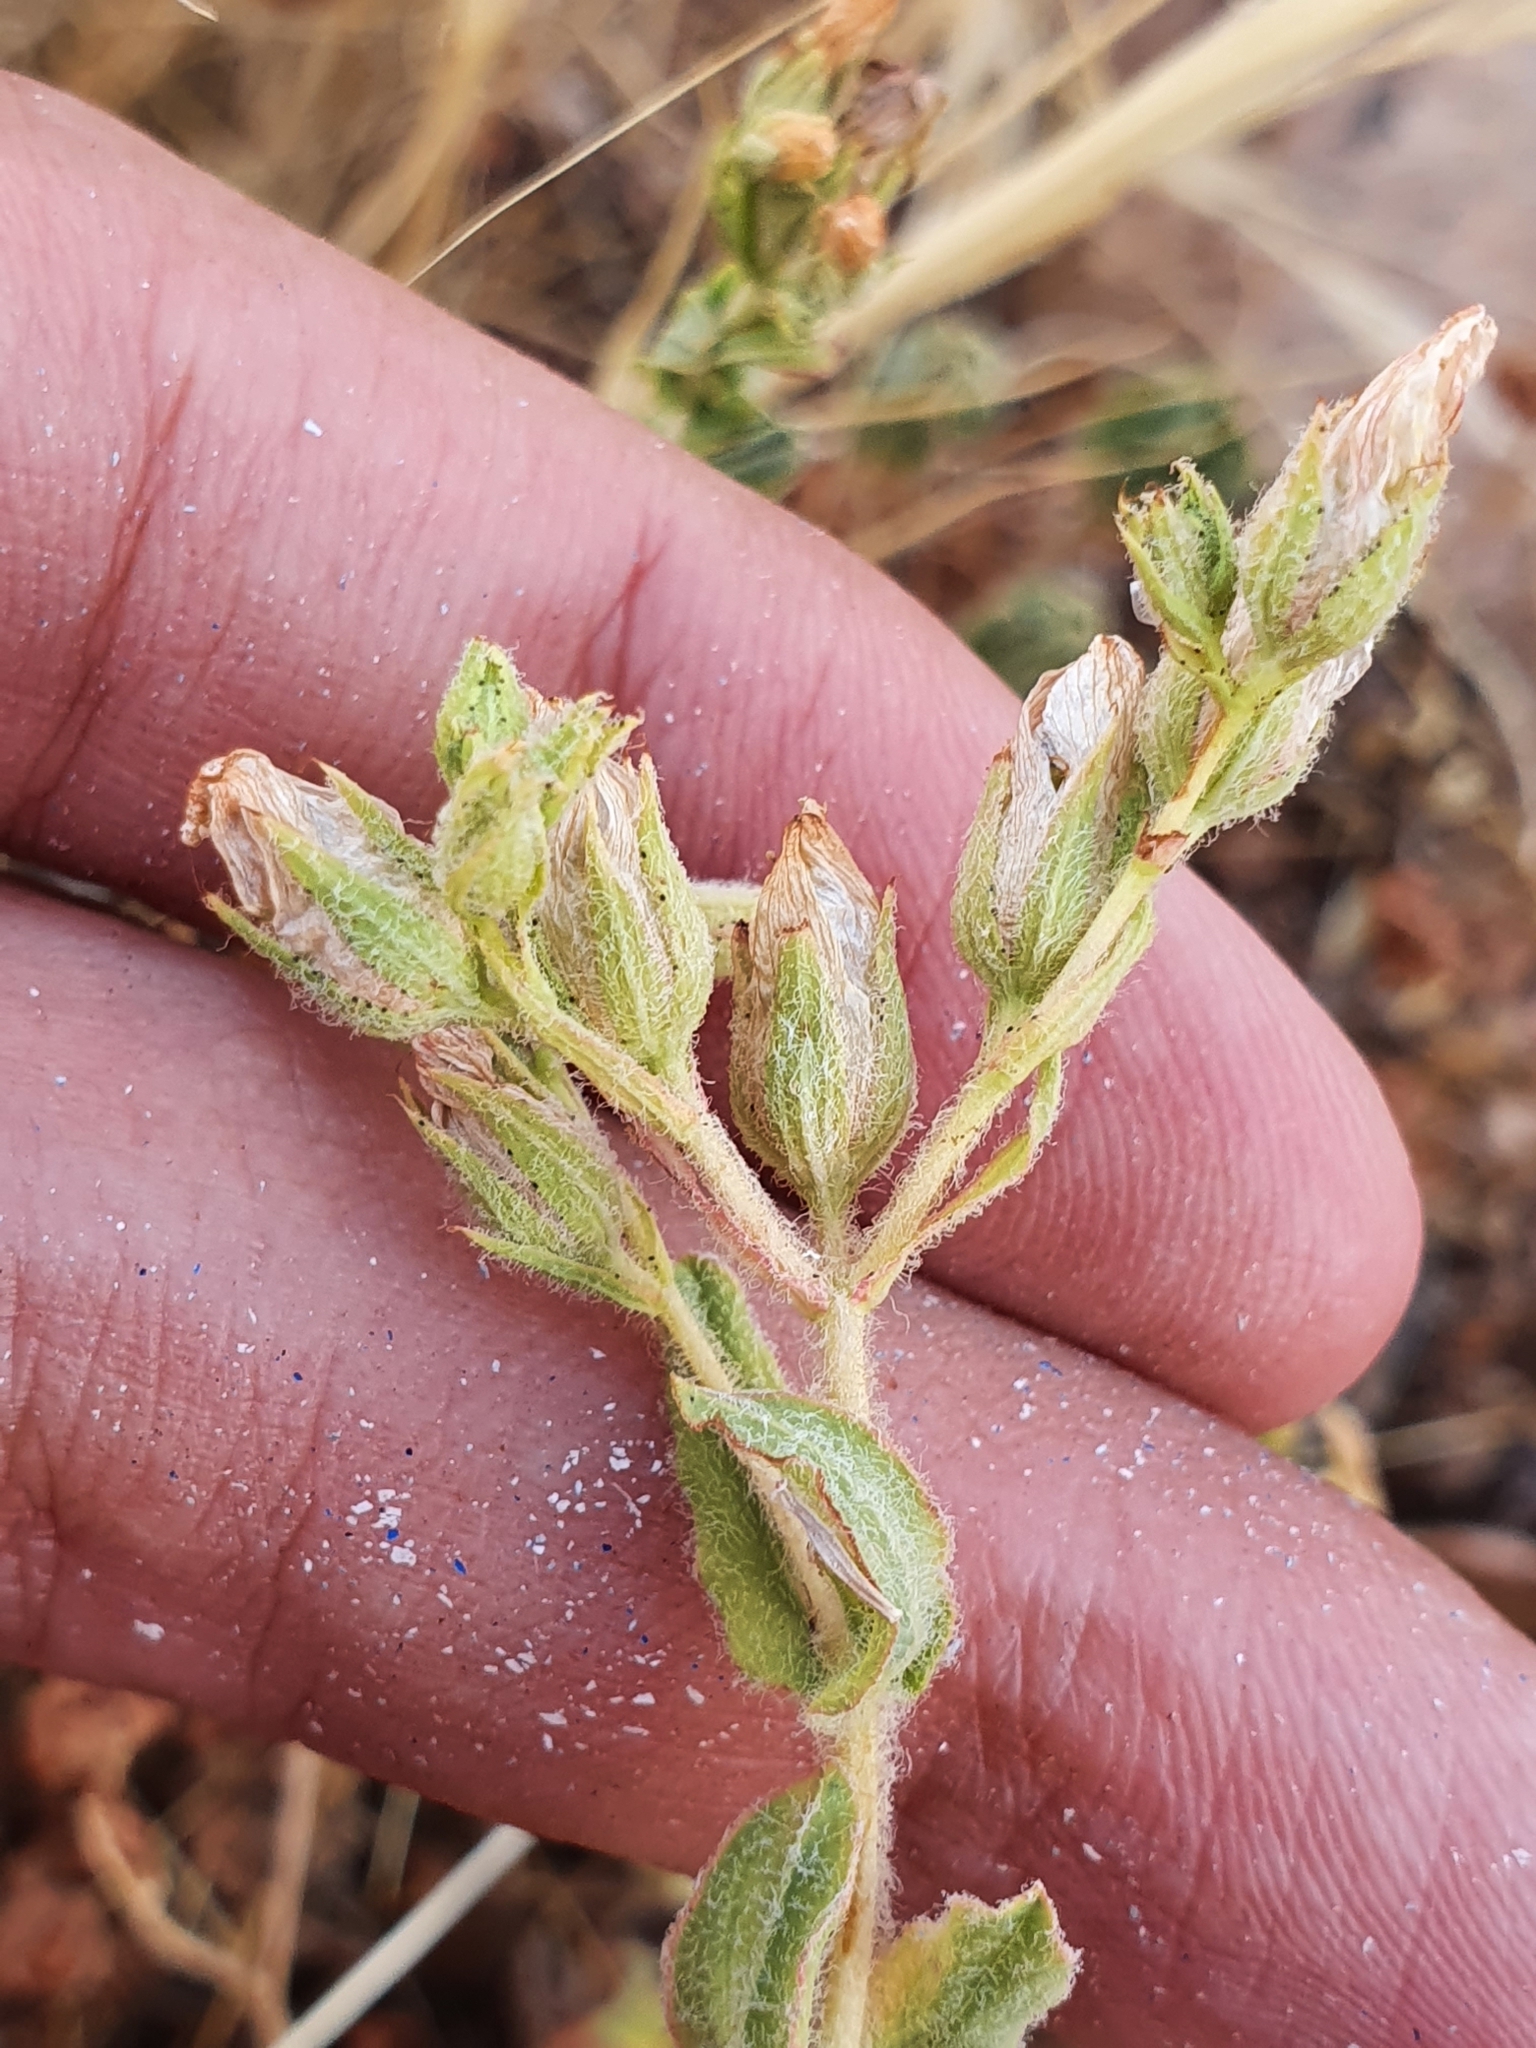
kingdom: Plantae
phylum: Tracheophyta
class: Magnoliopsida
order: Malpighiales
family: Hypericaceae
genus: Hypericum
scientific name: Hypericum pubescens
